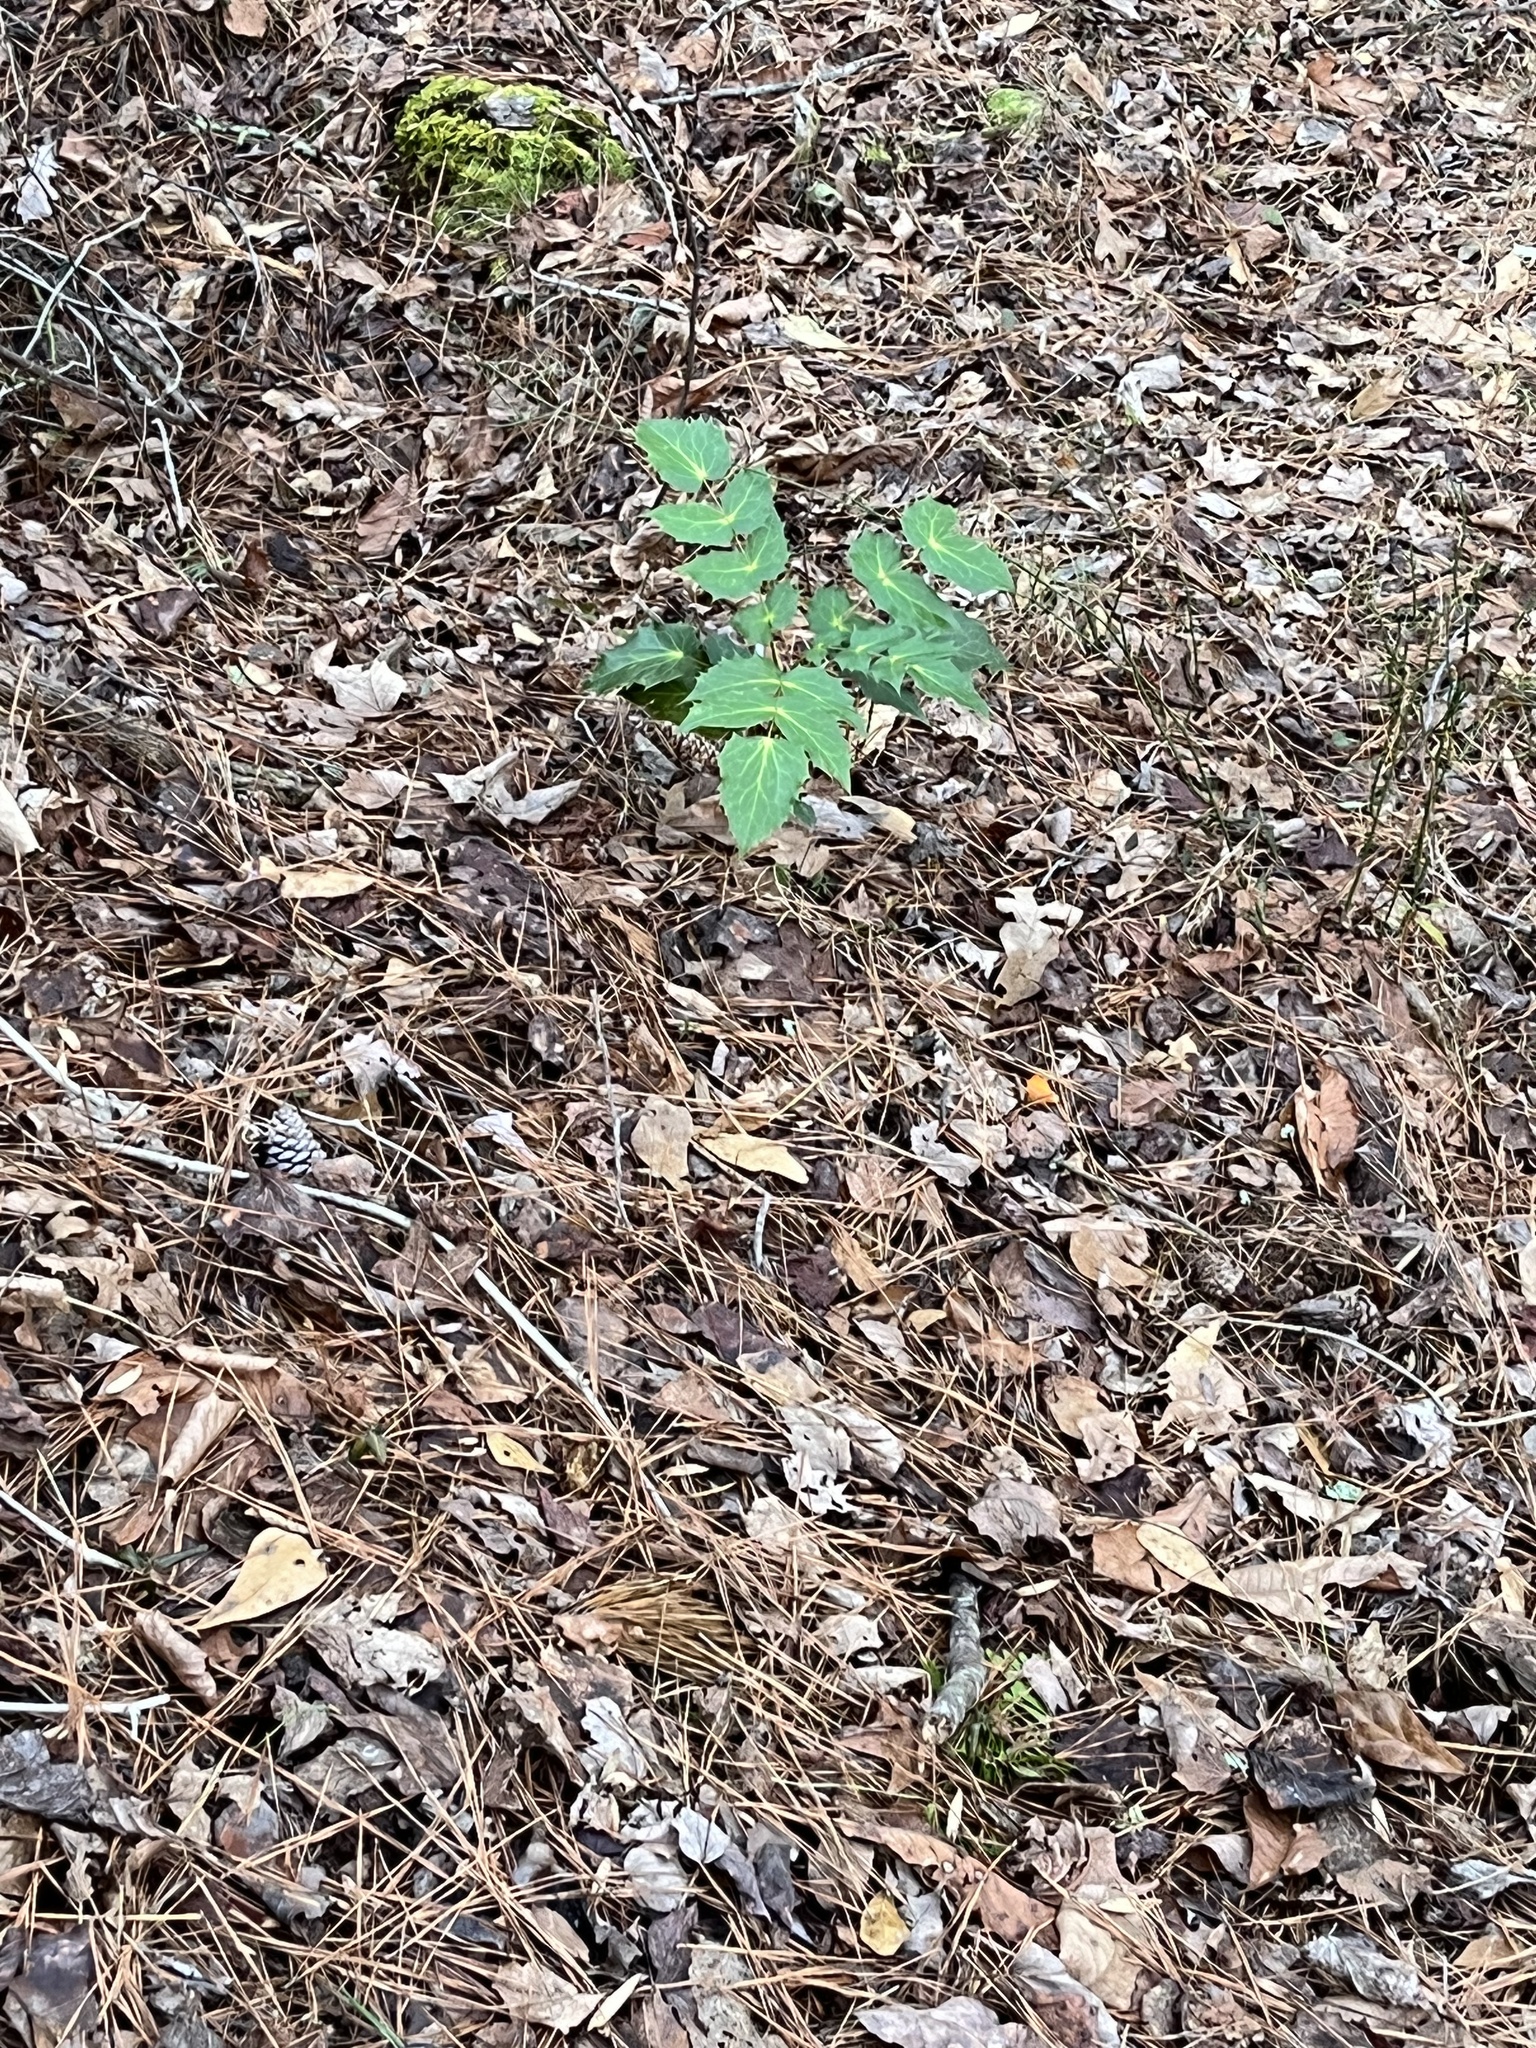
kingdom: Plantae
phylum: Tracheophyta
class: Magnoliopsida
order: Ranunculales
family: Berberidaceae
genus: Mahonia
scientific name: Mahonia bealei
